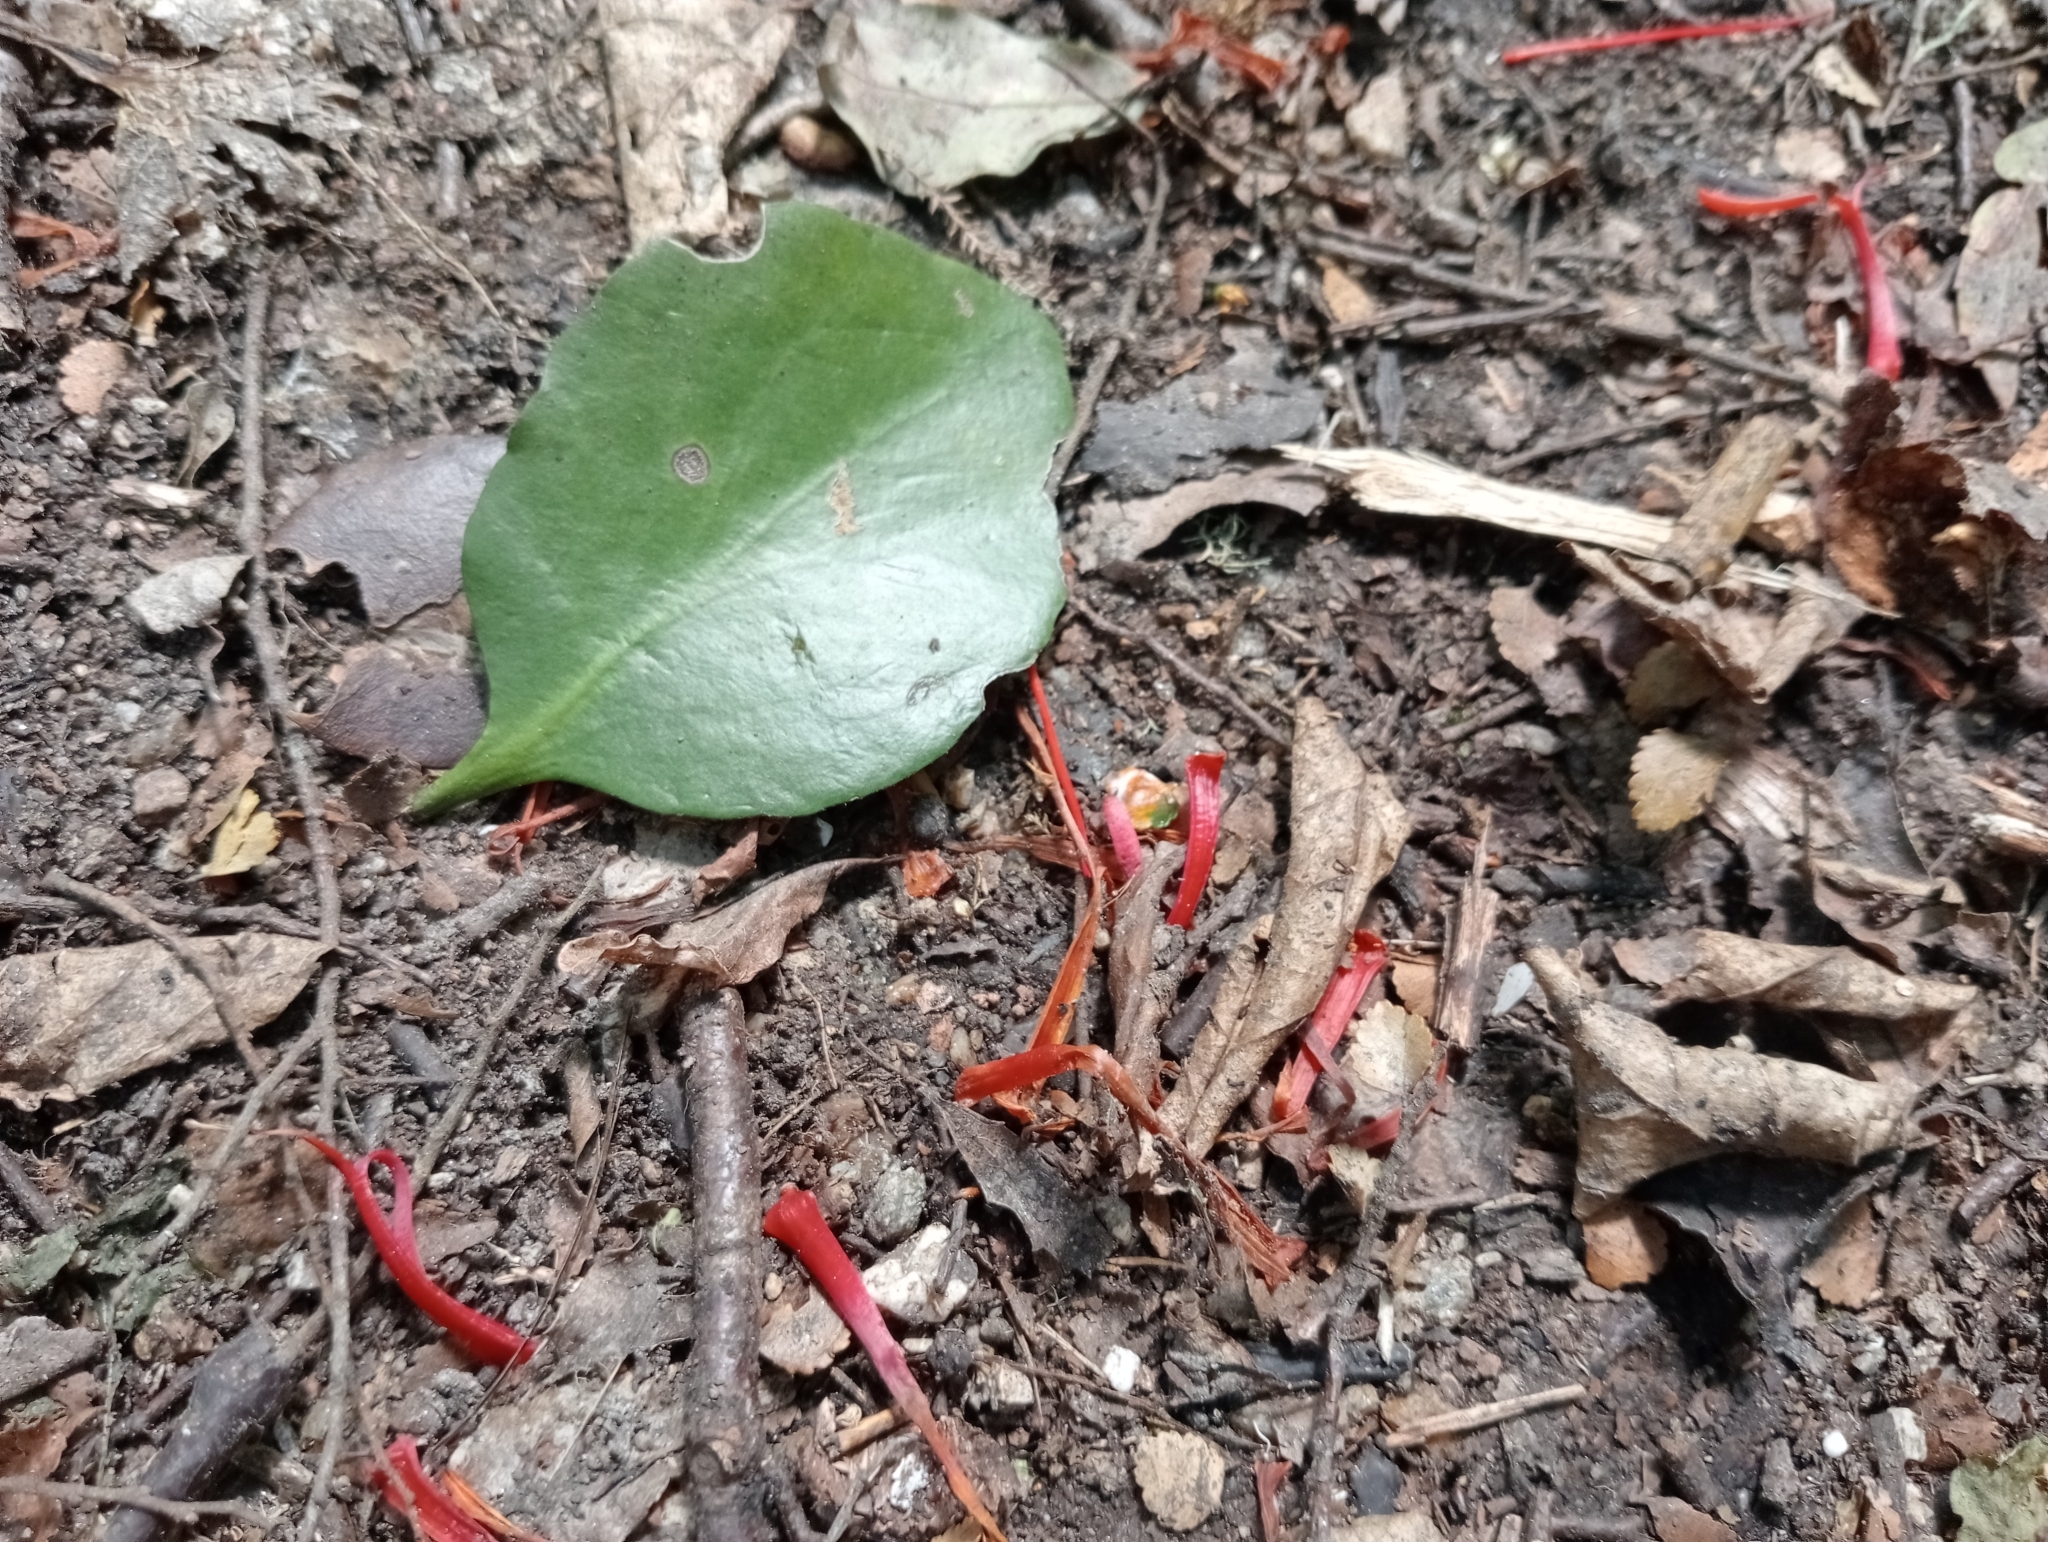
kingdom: Plantae
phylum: Tracheophyta
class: Magnoliopsida
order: Santalales
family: Loranthaceae
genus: Peraxilla
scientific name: Peraxilla colensoi
